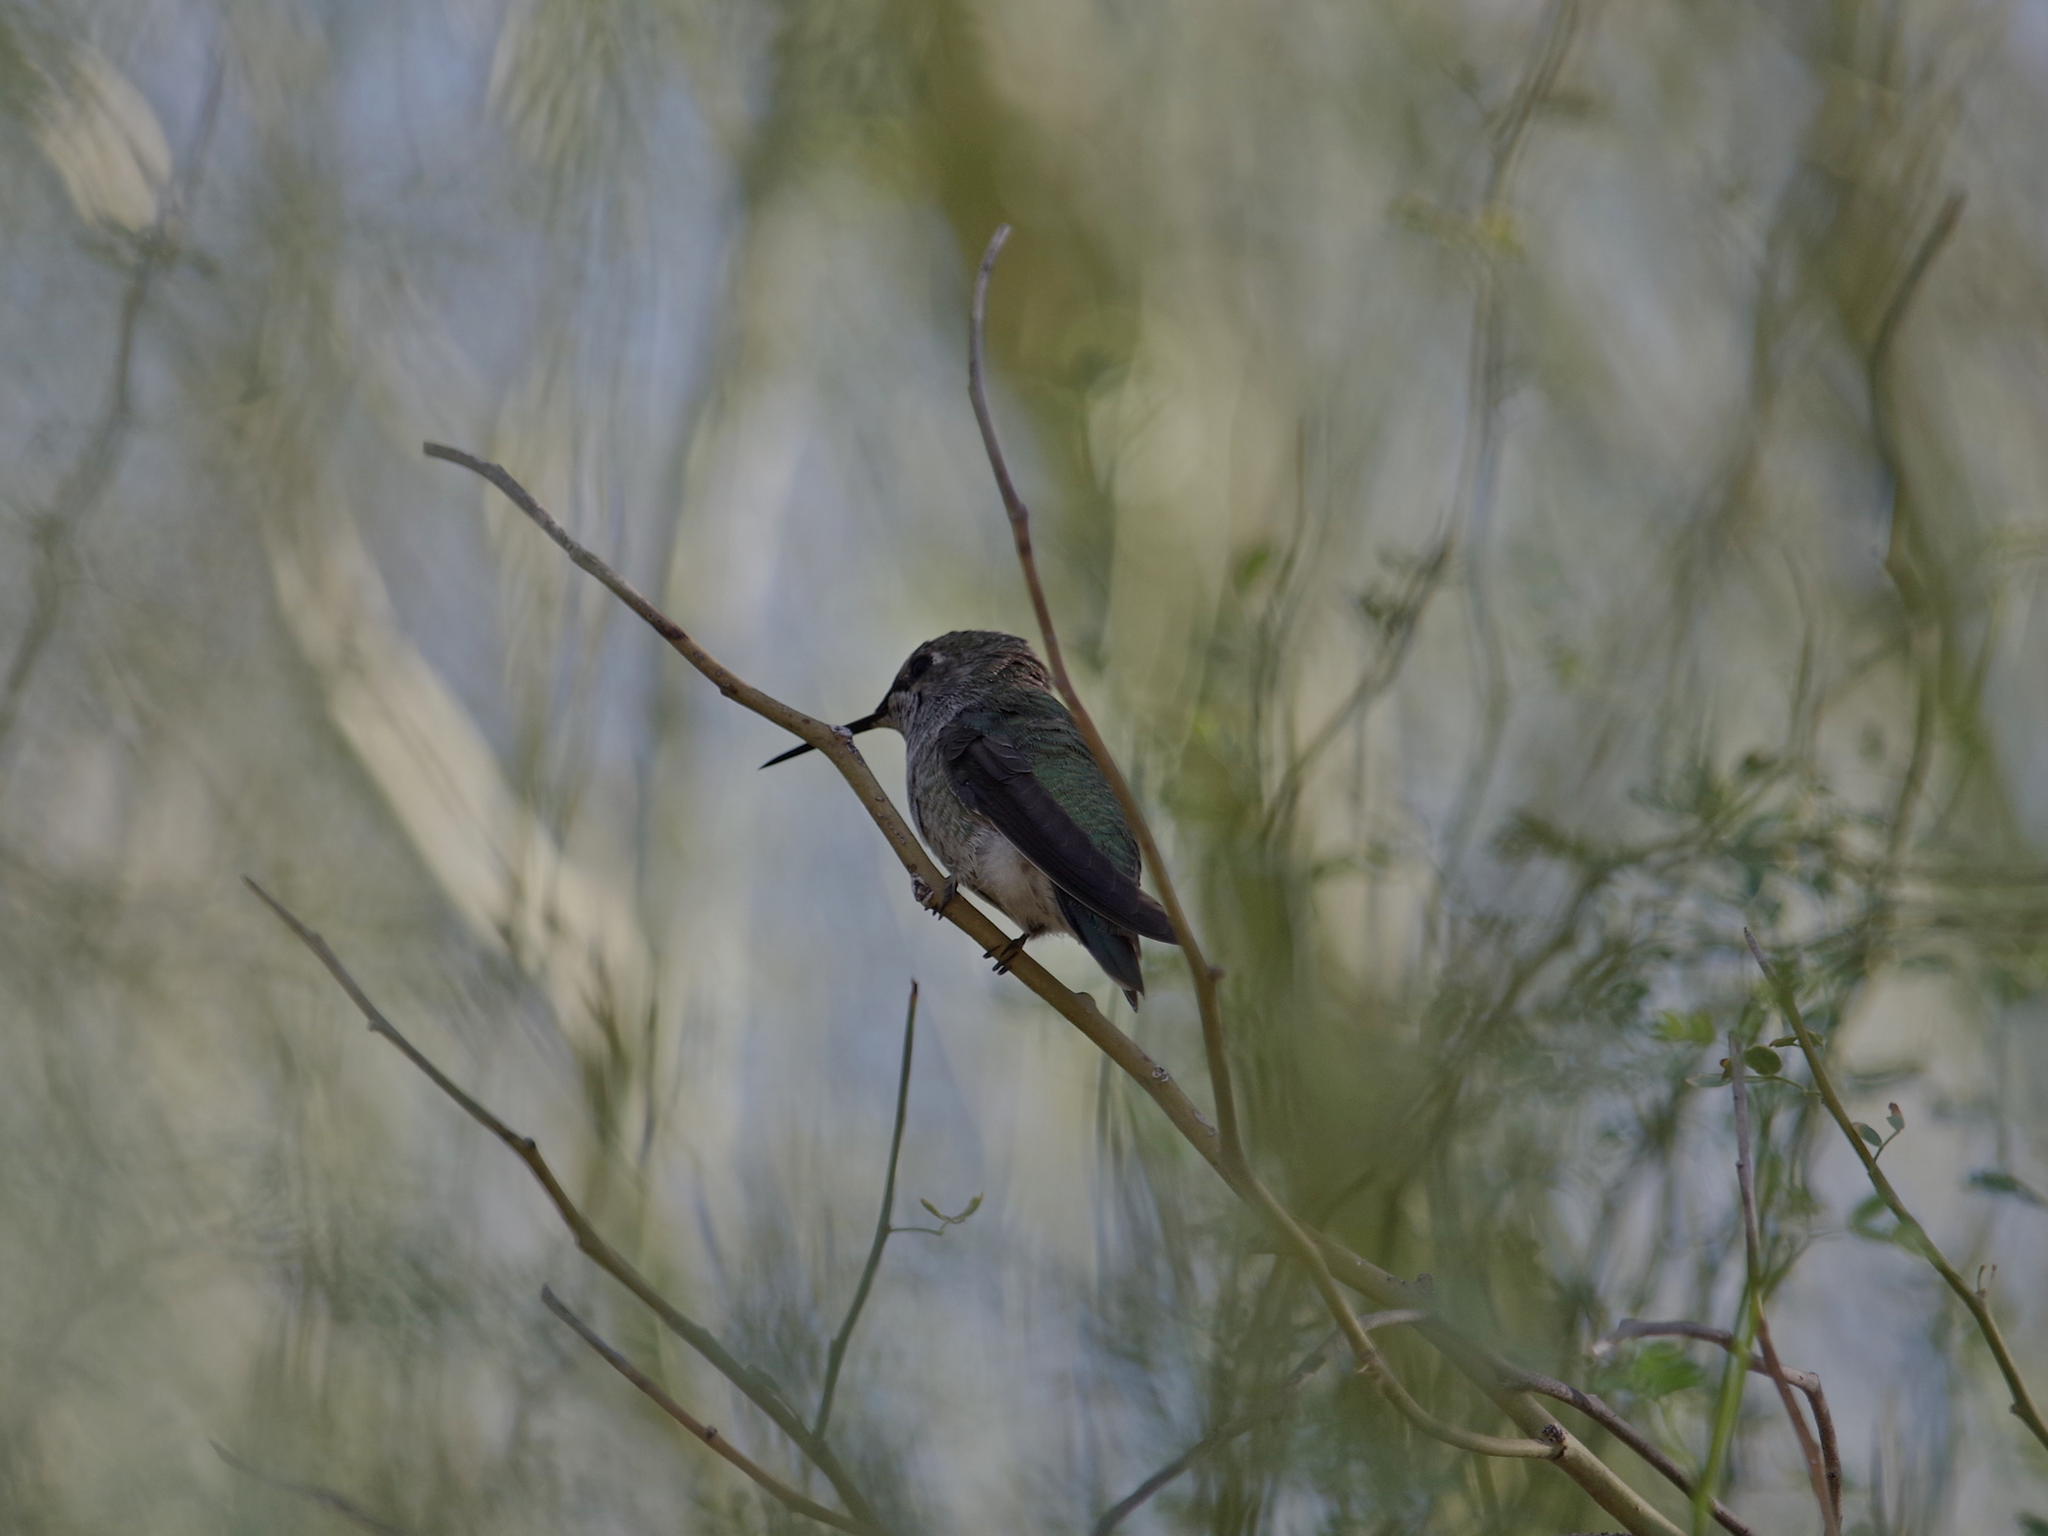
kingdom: Animalia
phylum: Chordata
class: Aves
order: Apodiformes
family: Trochilidae
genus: Calypte
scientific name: Calypte anna
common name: Anna's hummingbird
